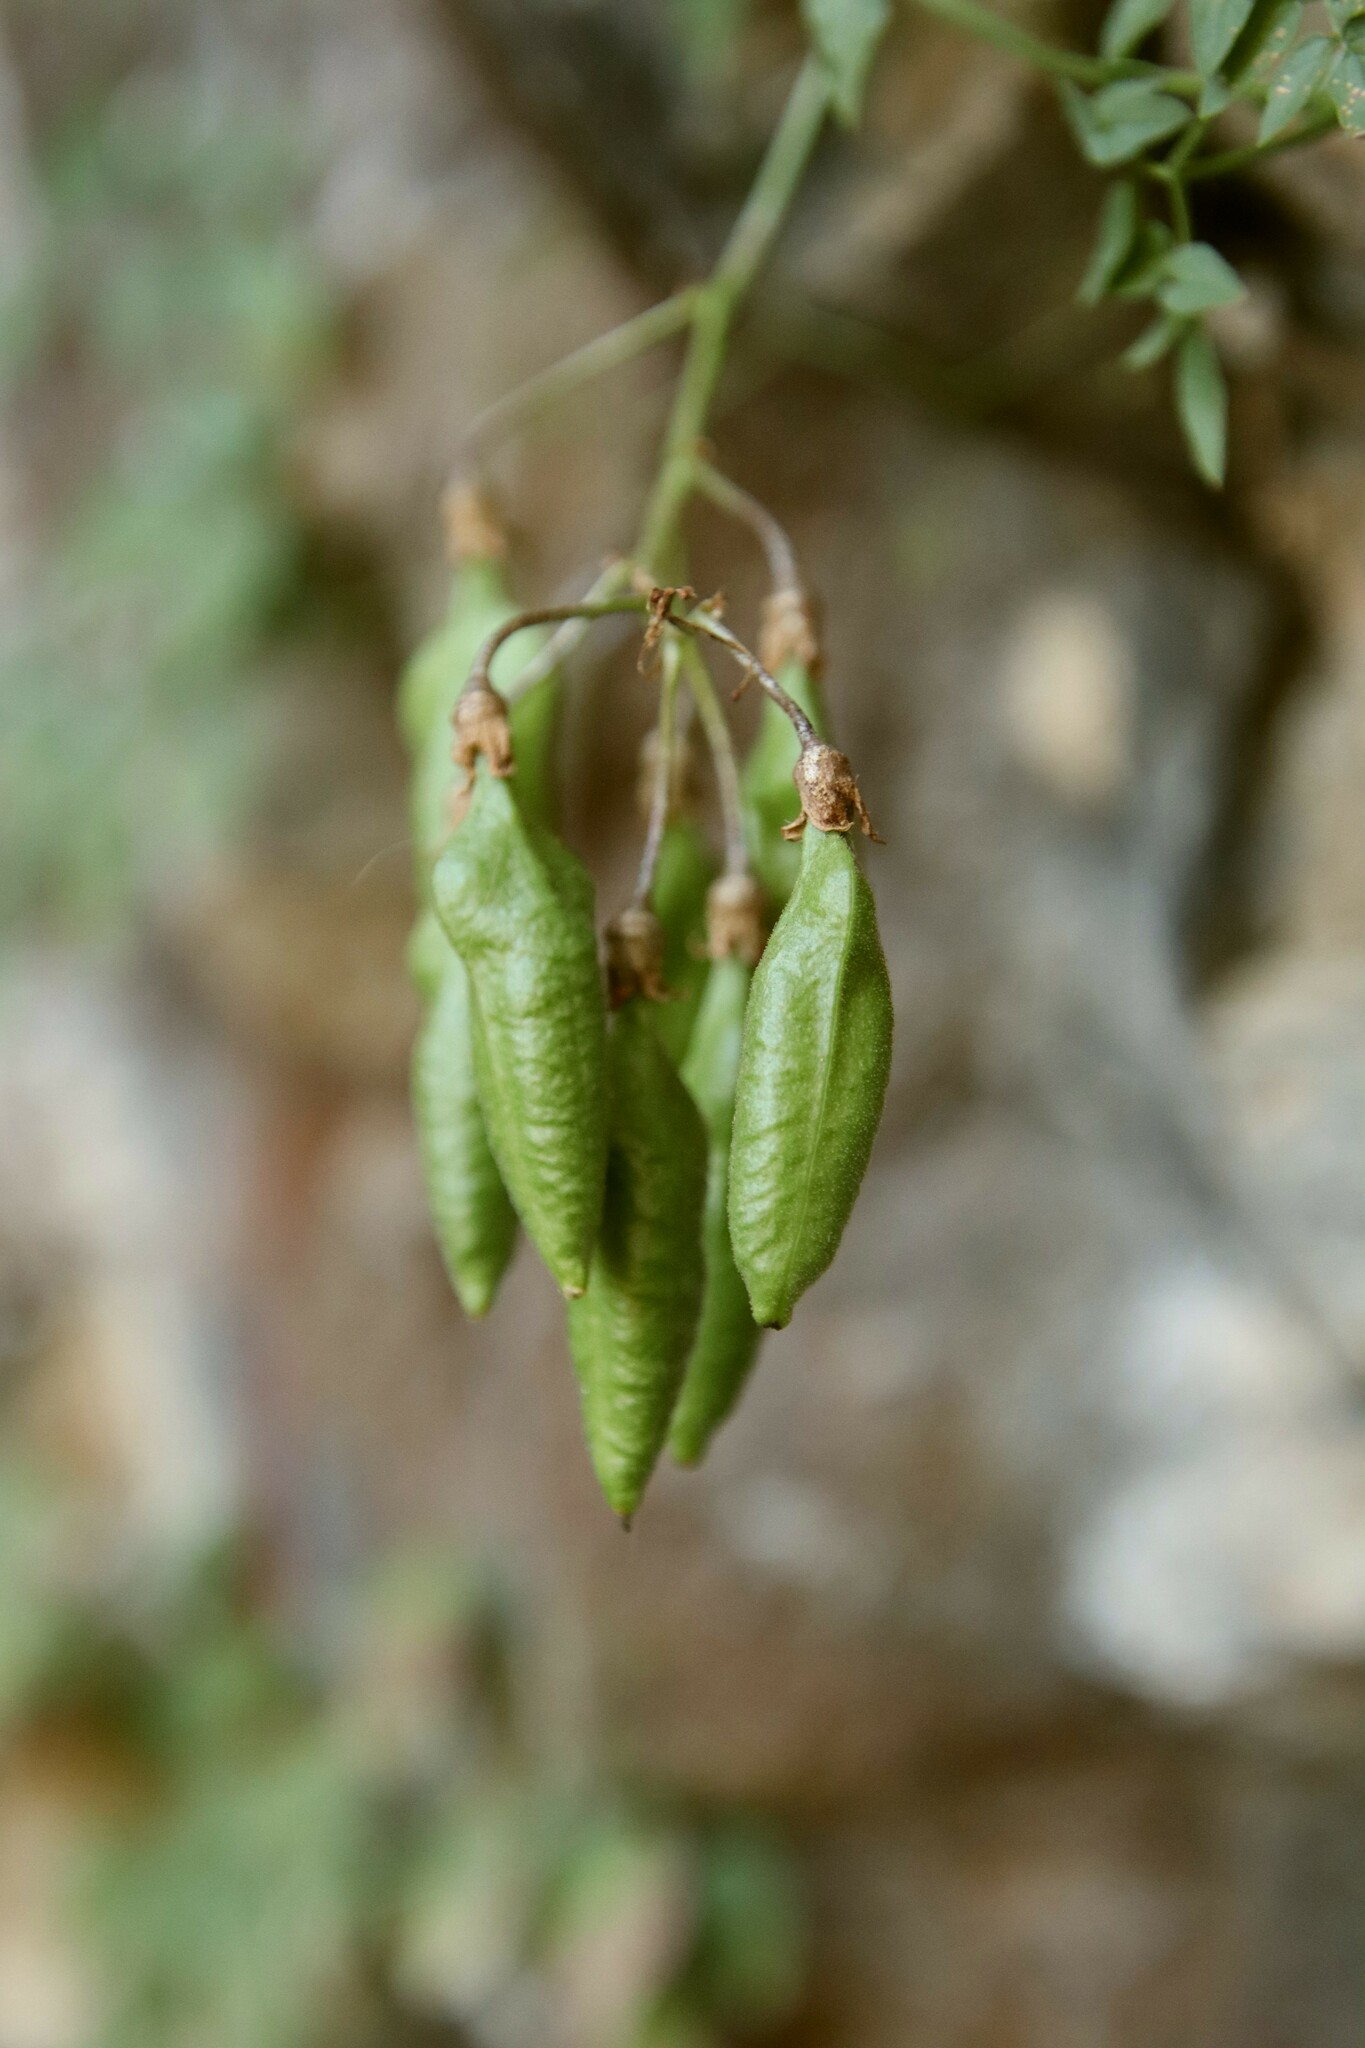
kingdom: Plantae
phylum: Tracheophyta
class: Magnoliopsida
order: Lamiales
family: Bignoniaceae
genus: Eccremocarpus
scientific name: Eccremocarpus scaber
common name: Chilean glory-flower
